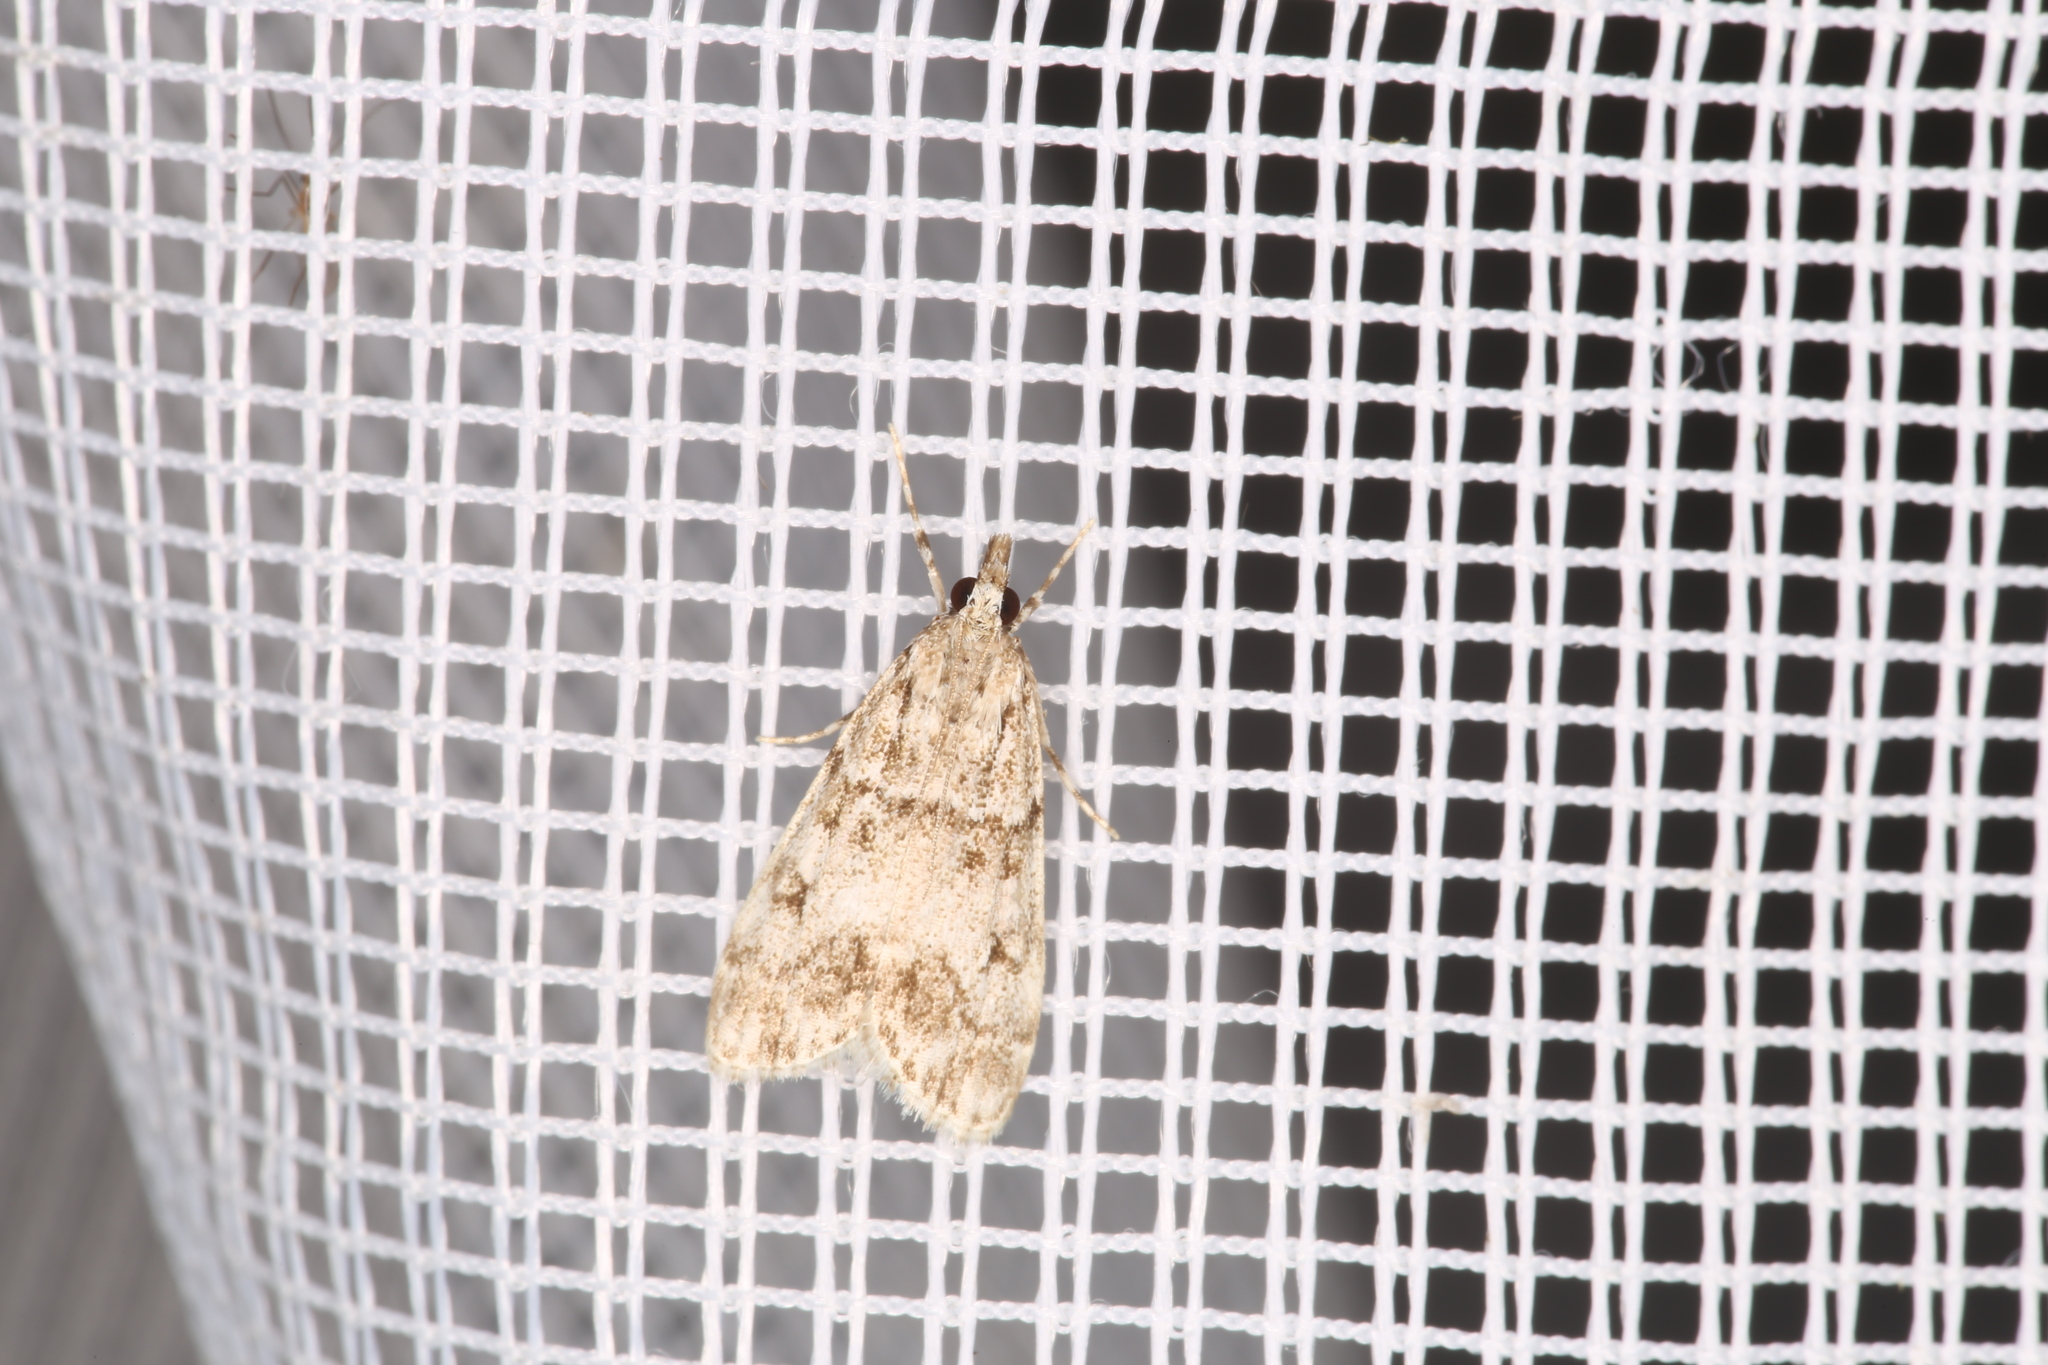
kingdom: Animalia
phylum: Arthropoda
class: Insecta
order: Lepidoptera
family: Crambidae
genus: Eudonia
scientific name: Eudonia lacustrata
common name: Little grey
